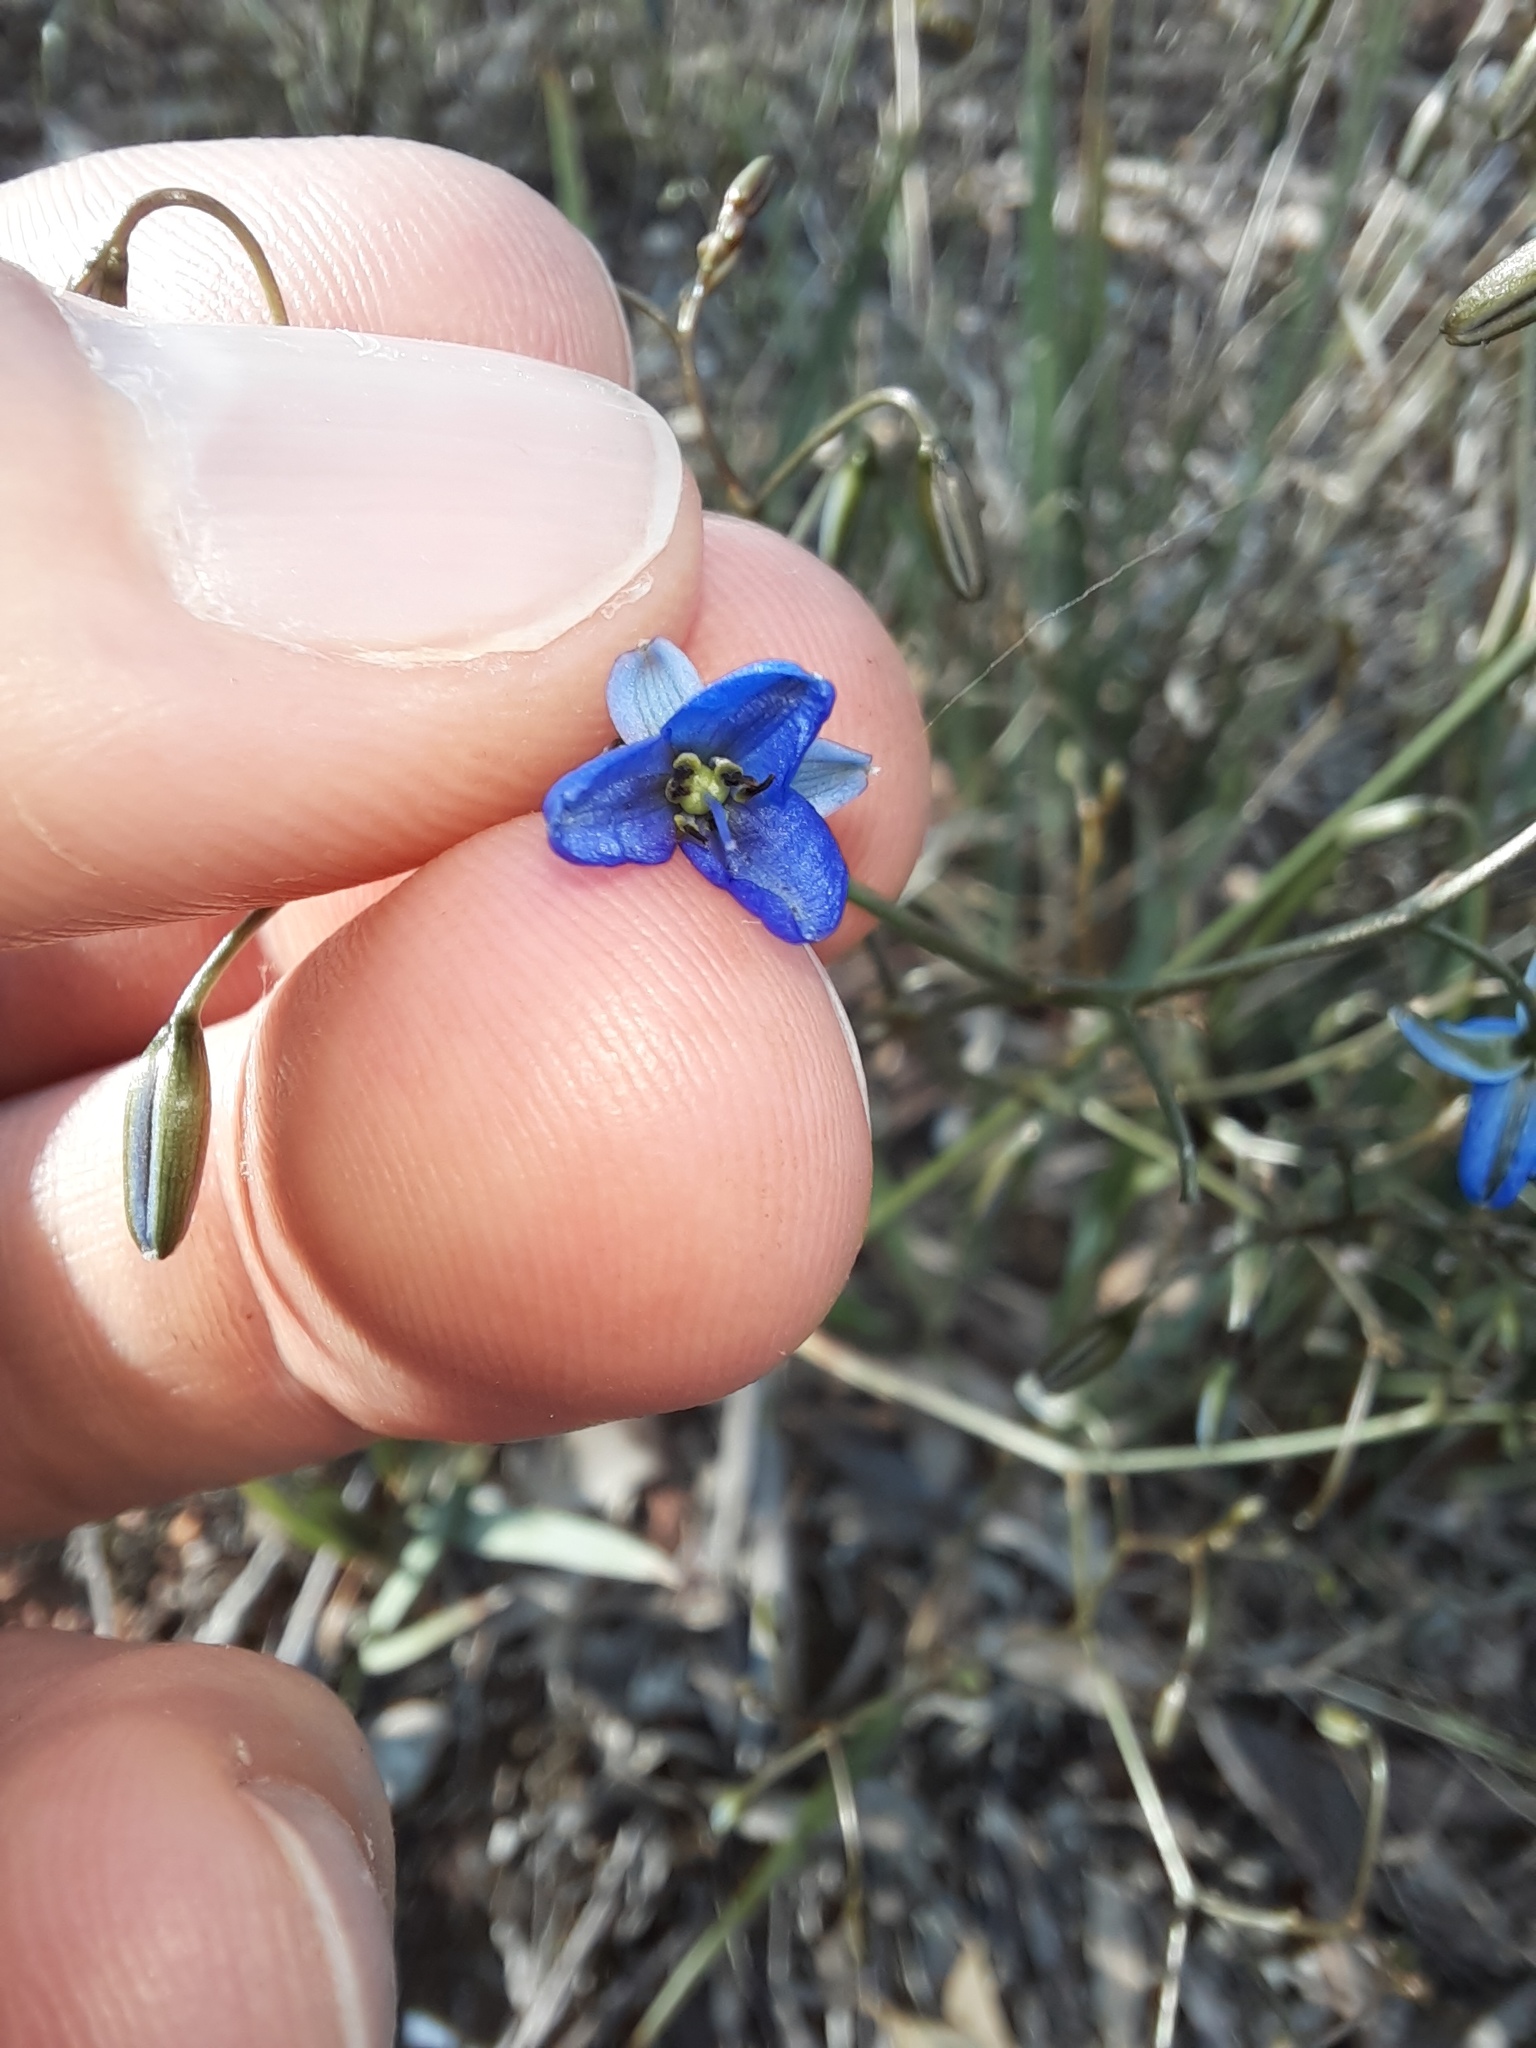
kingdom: Plantae
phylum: Tracheophyta
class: Liliopsida
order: Asparagales
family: Asphodelaceae
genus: Dianella
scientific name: Dianella revoluta
